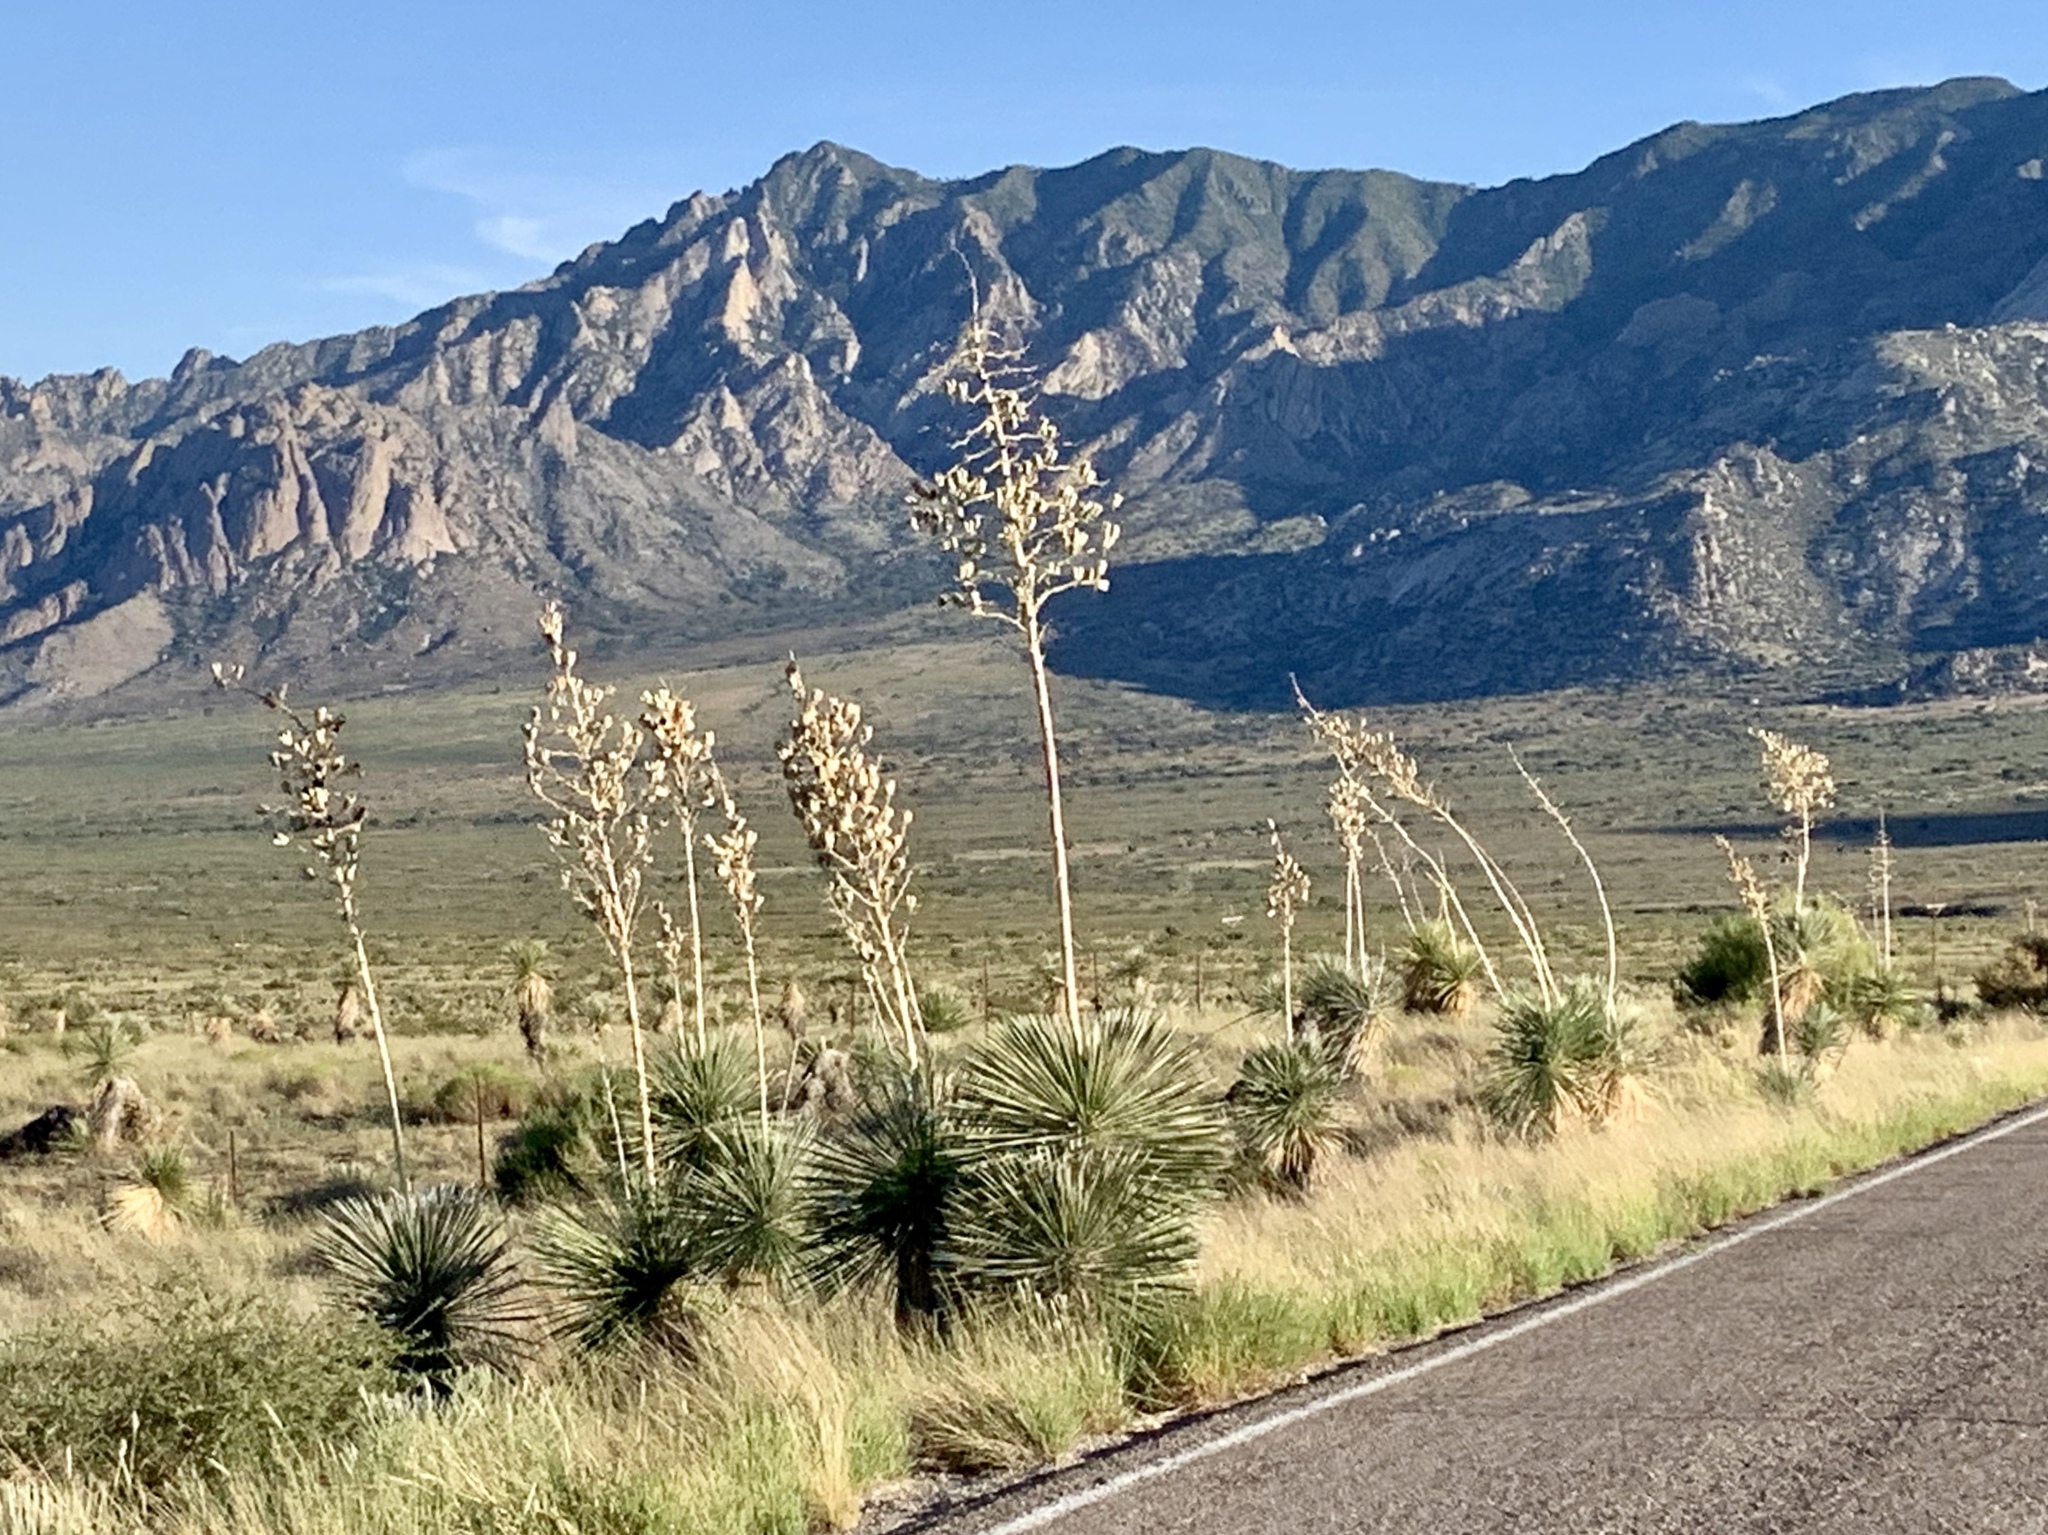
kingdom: Plantae
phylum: Tracheophyta
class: Liliopsida
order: Asparagales
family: Asparagaceae
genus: Yucca
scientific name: Yucca elata
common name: Palmella
